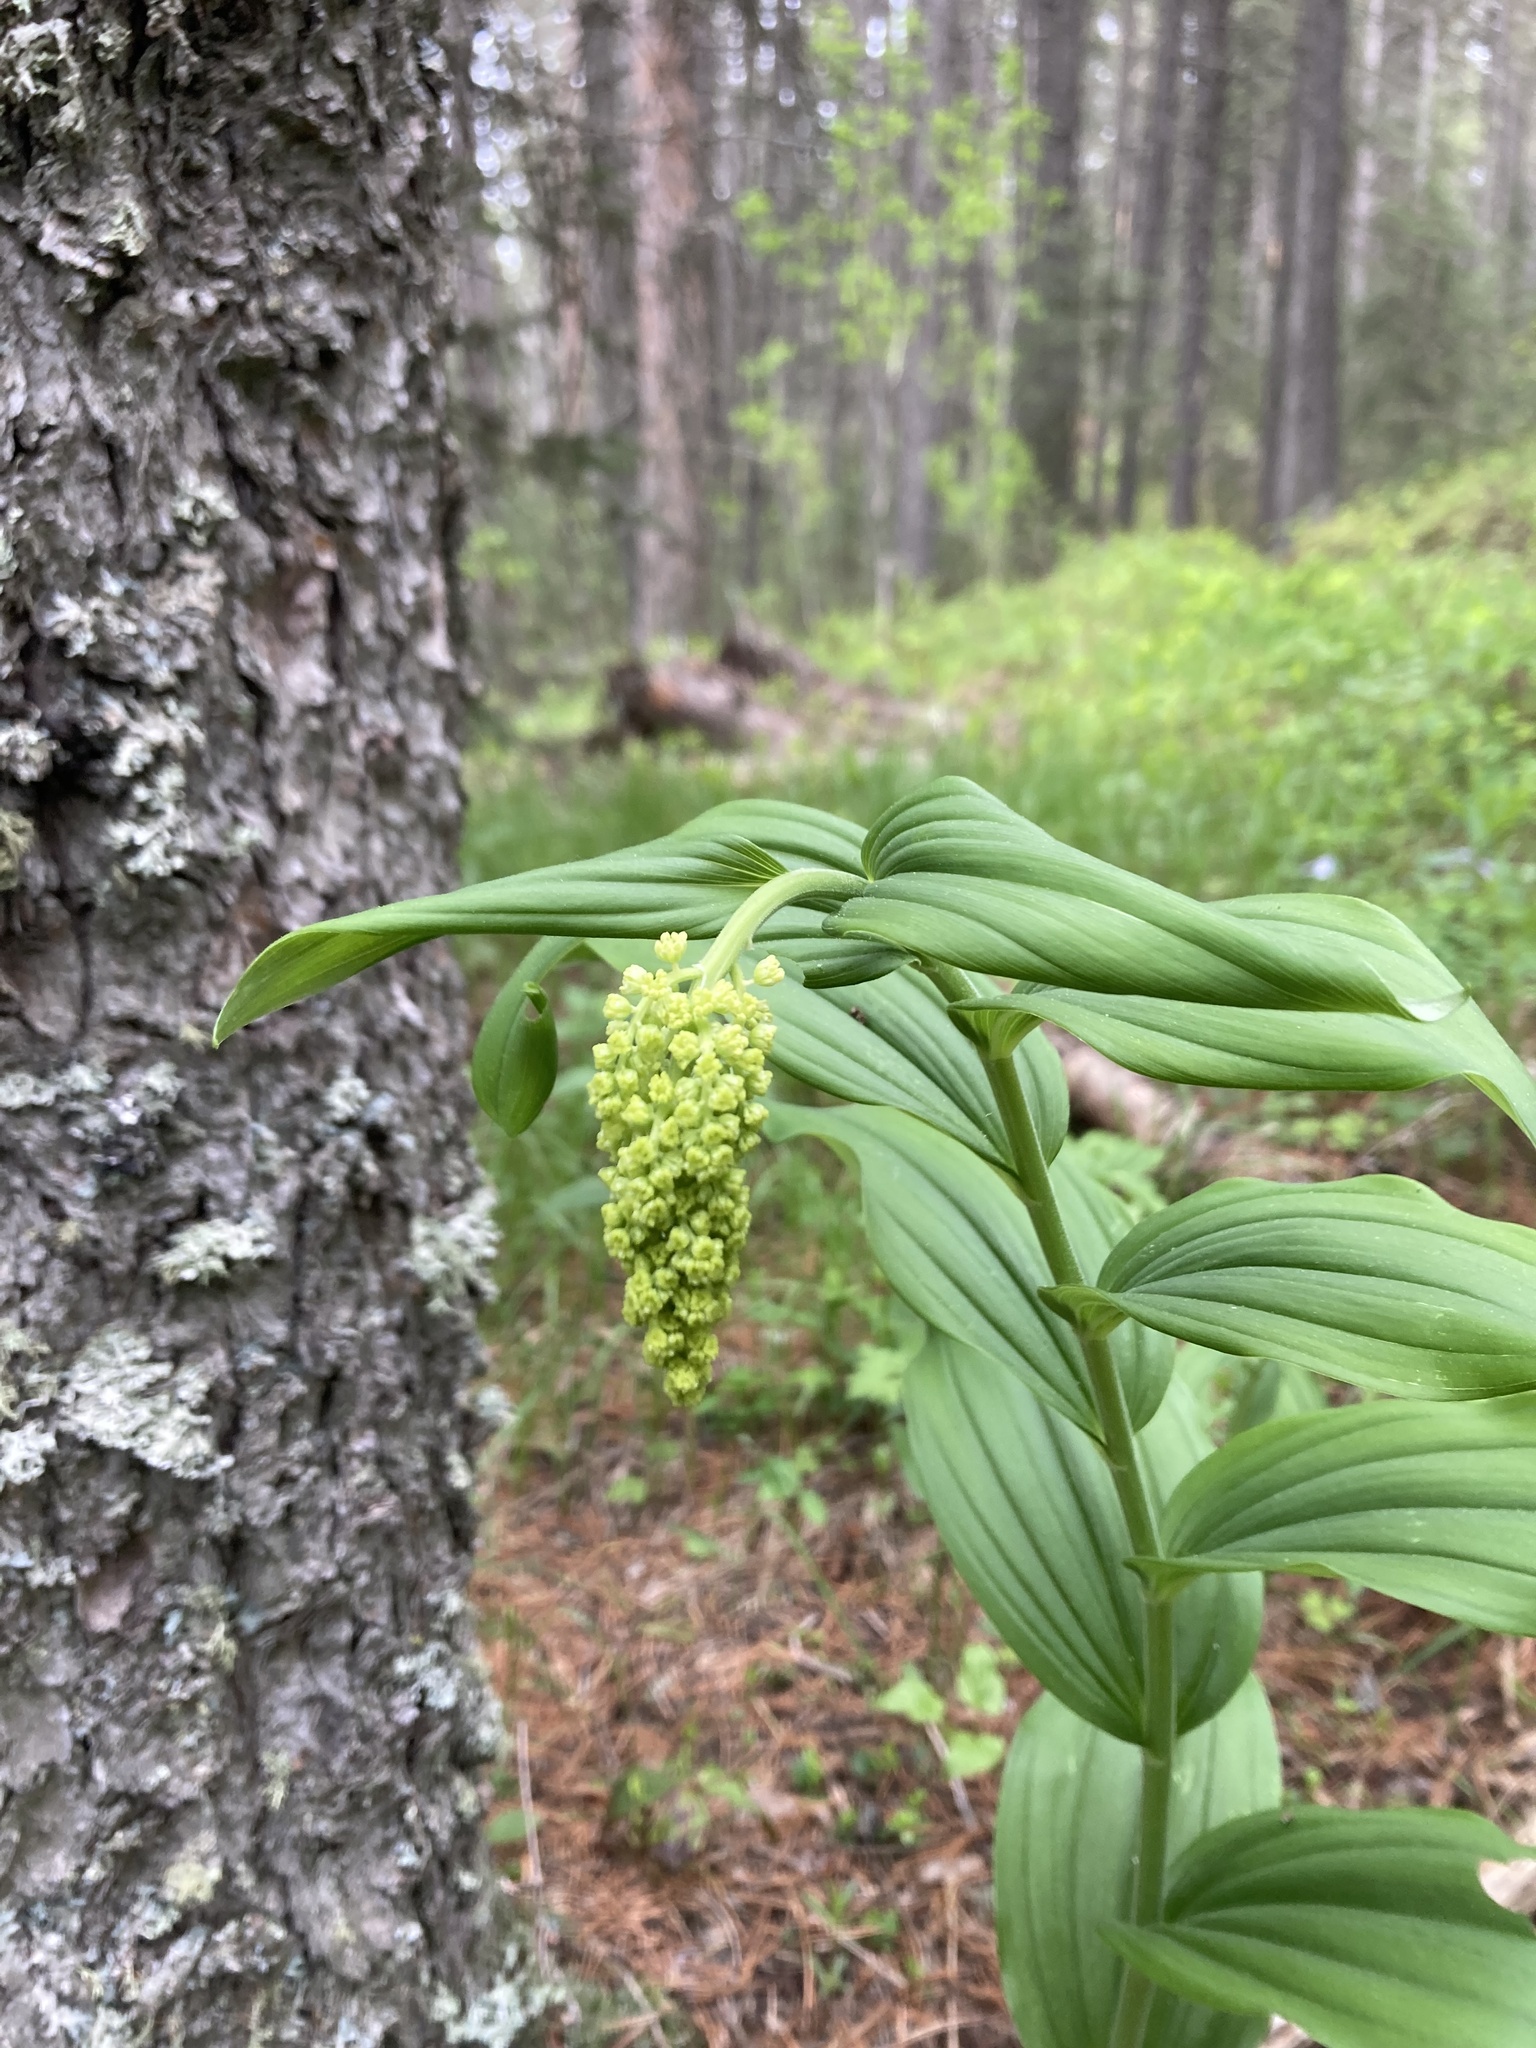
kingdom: Plantae
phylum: Tracheophyta
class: Liliopsida
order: Asparagales
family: Asparagaceae
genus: Maianthemum
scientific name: Maianthemum racemosum
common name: False spikenard
